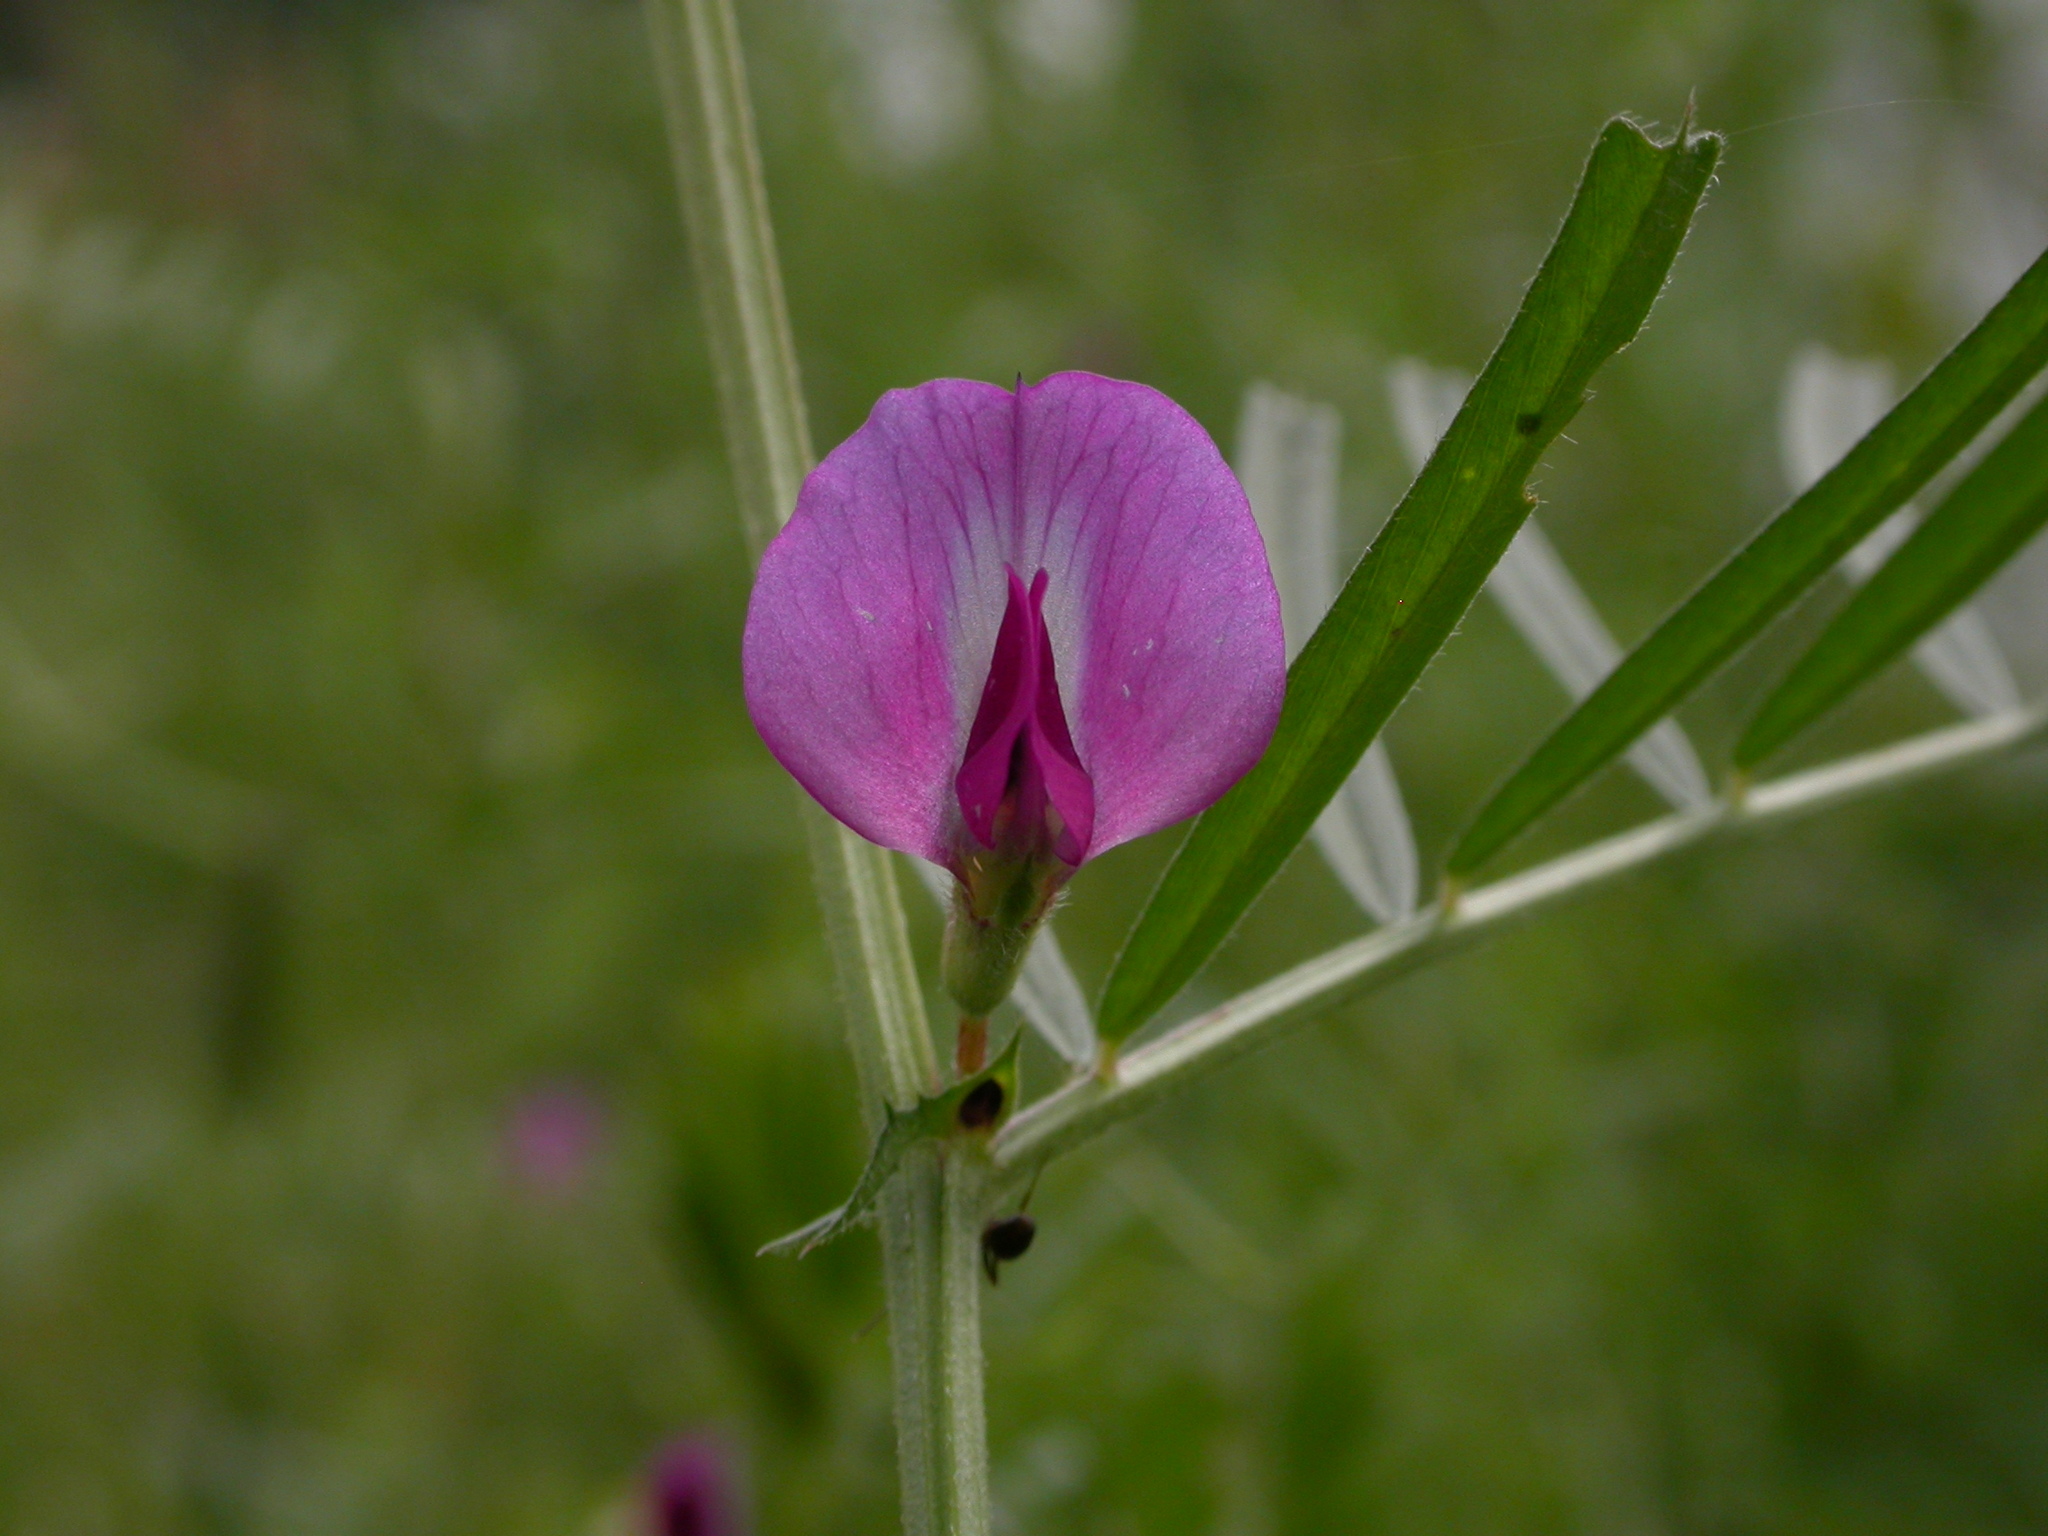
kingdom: Plantae
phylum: Tracheophyta
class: Magnoliopsida
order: Fabales
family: Fabaceae
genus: Vicia
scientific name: Vicia sativa
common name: Garden vetch
